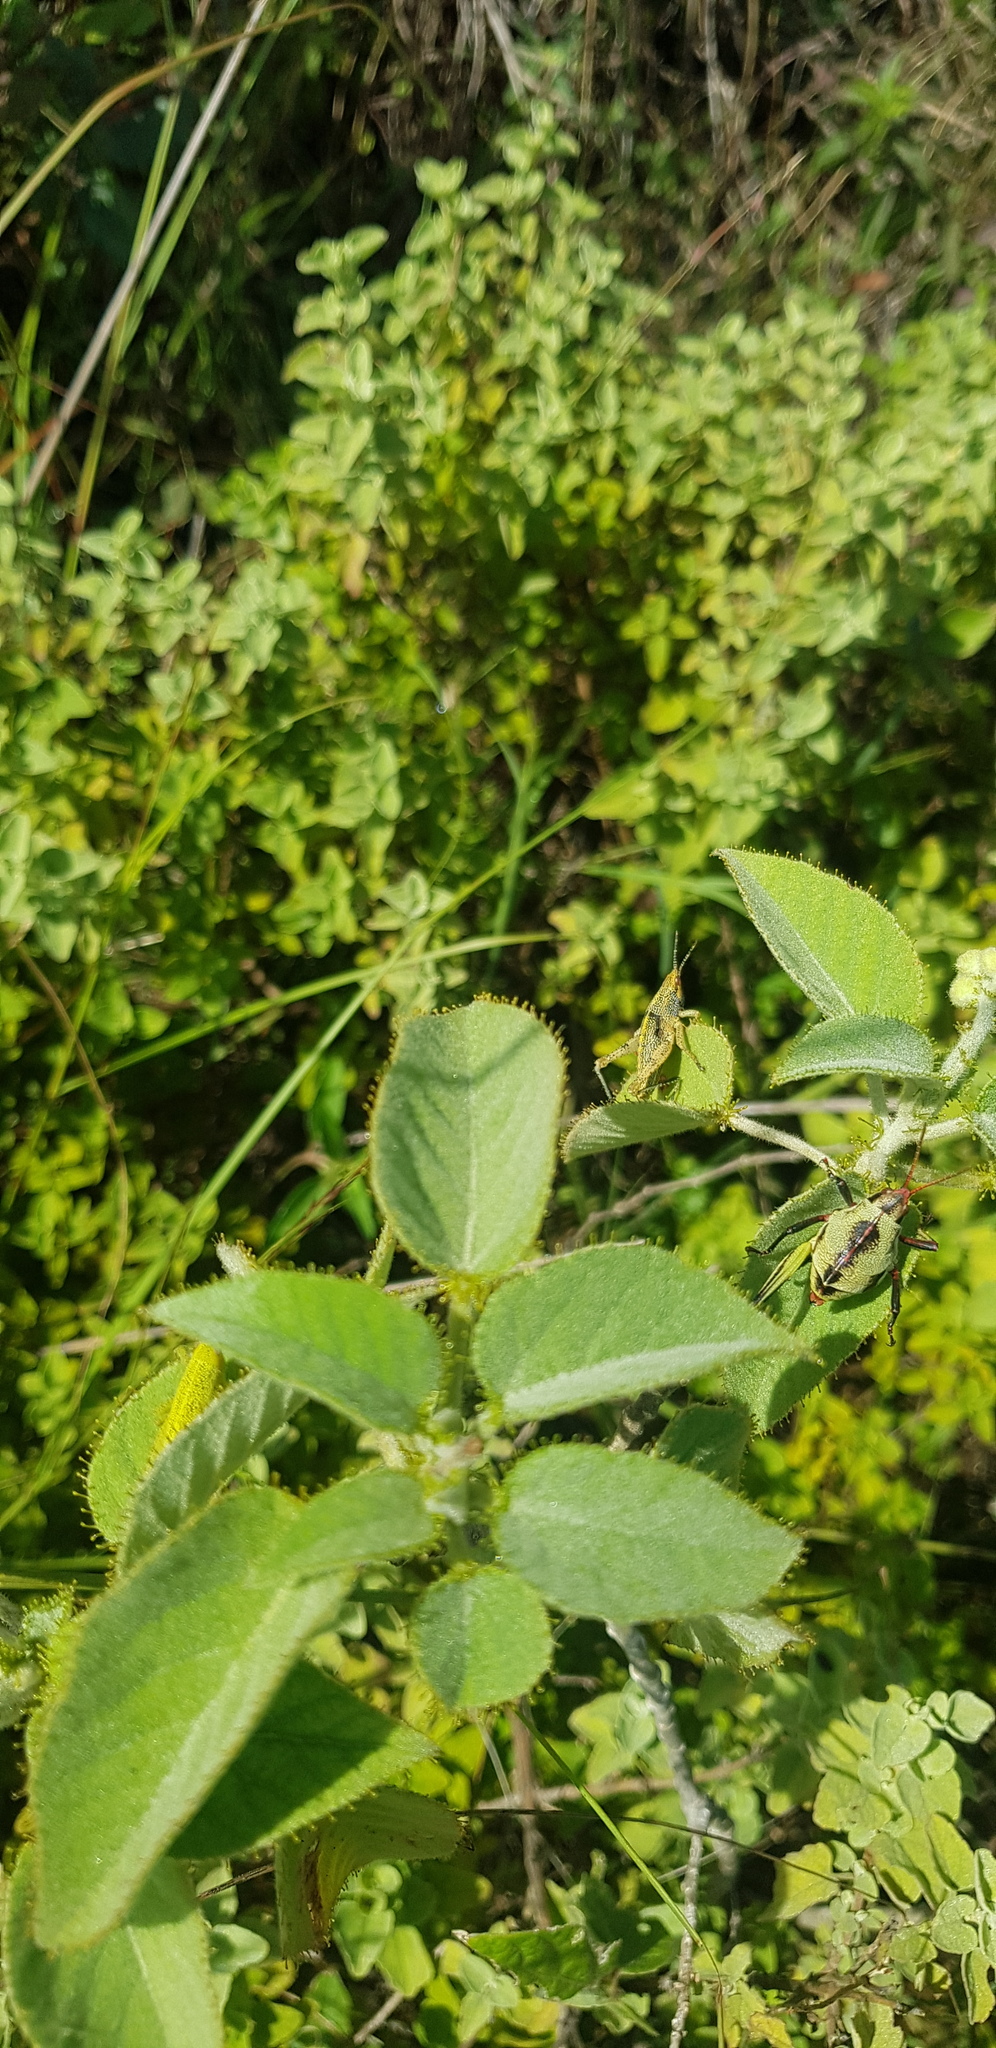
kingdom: Plantae
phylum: Tracheophyta
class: Magnoliopsida
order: Malpighiales
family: Euphorbiaceae
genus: Croton
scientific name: Croton ciliatoglandulifer
